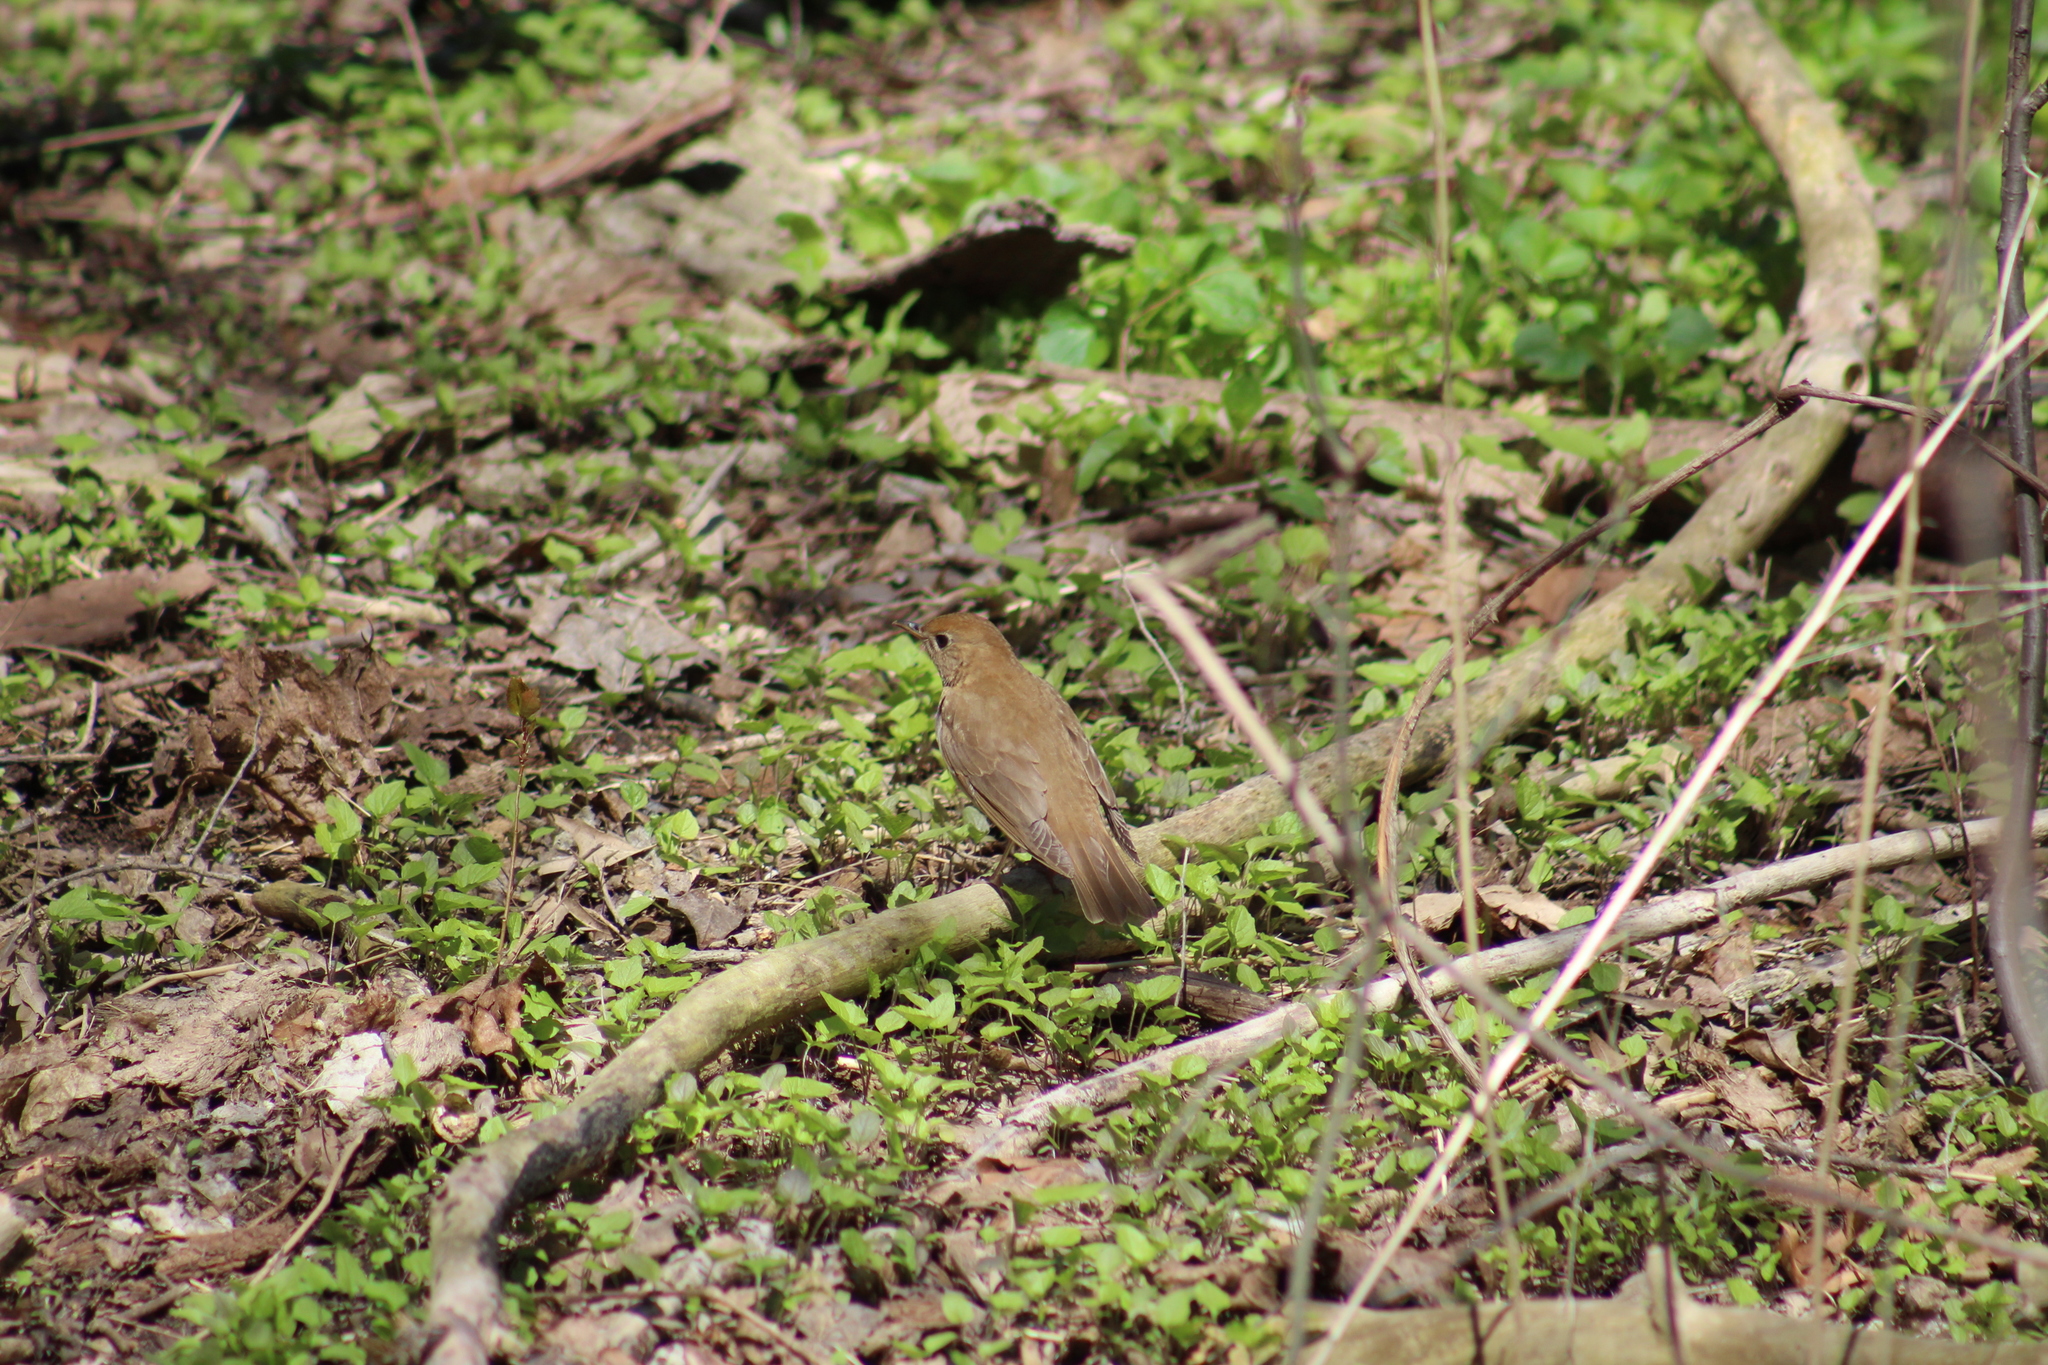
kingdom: Animalia
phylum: Chordata
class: Aves
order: Passeriformes
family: Turdidae
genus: Catharus
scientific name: Catharus fuscescens
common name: Veery
